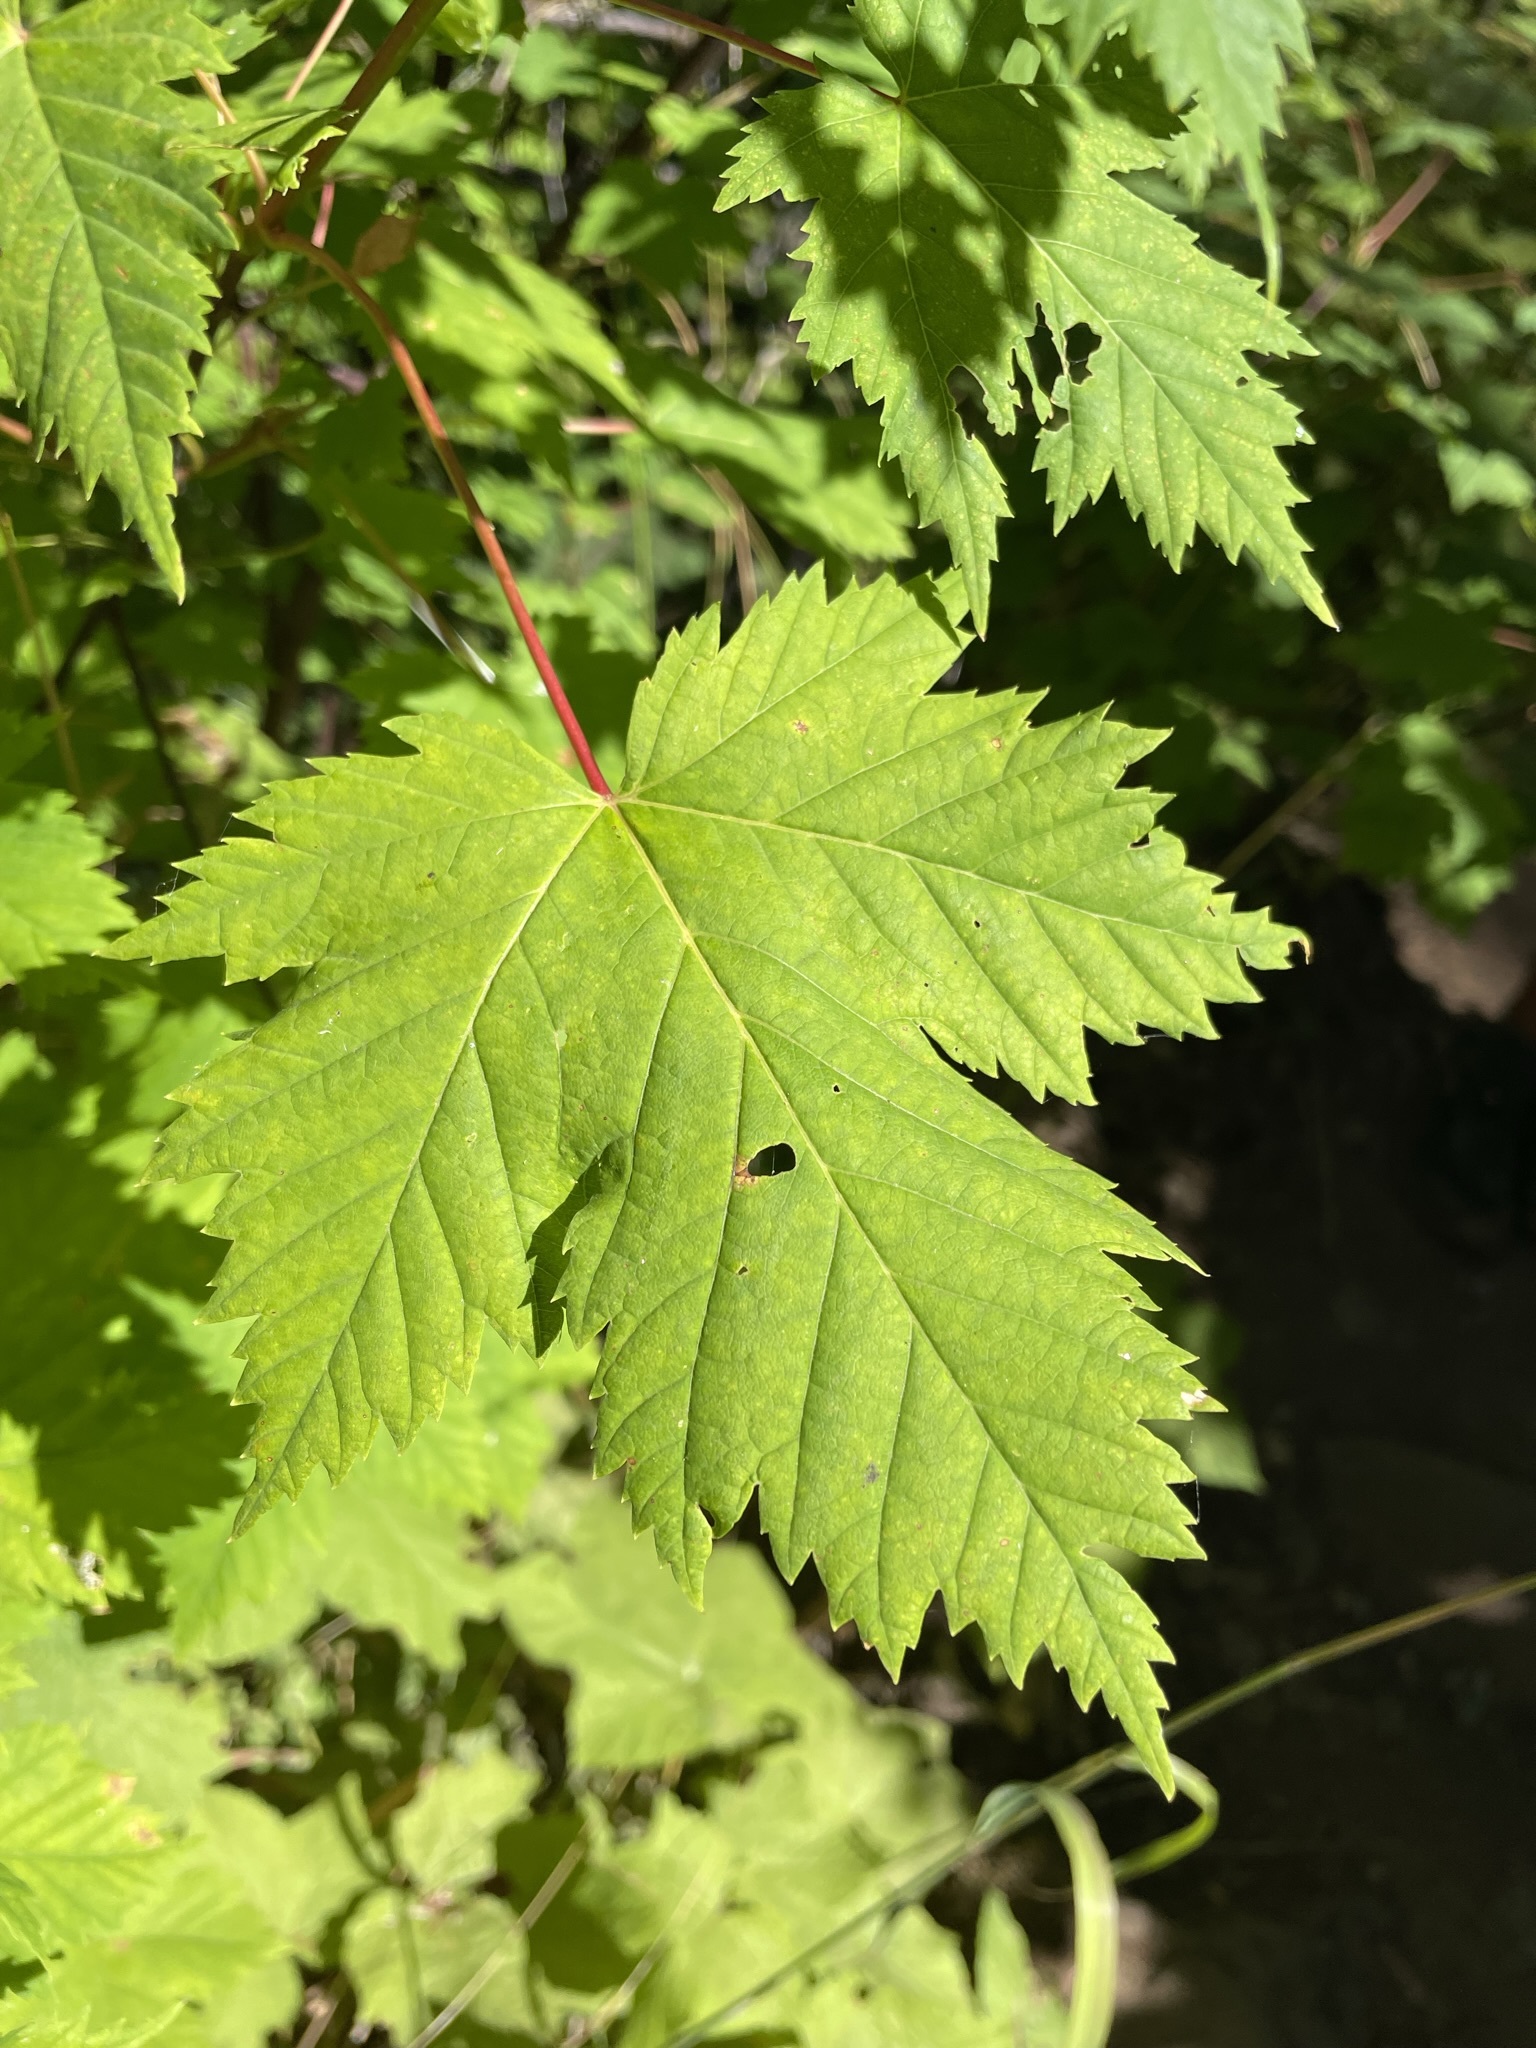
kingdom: Plantae
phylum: Tracheophyta
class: Magnoliopsida
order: Sapindales
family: Sapindaceae
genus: Acer
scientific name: Acer glabrum
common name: Rocky mountain maple
